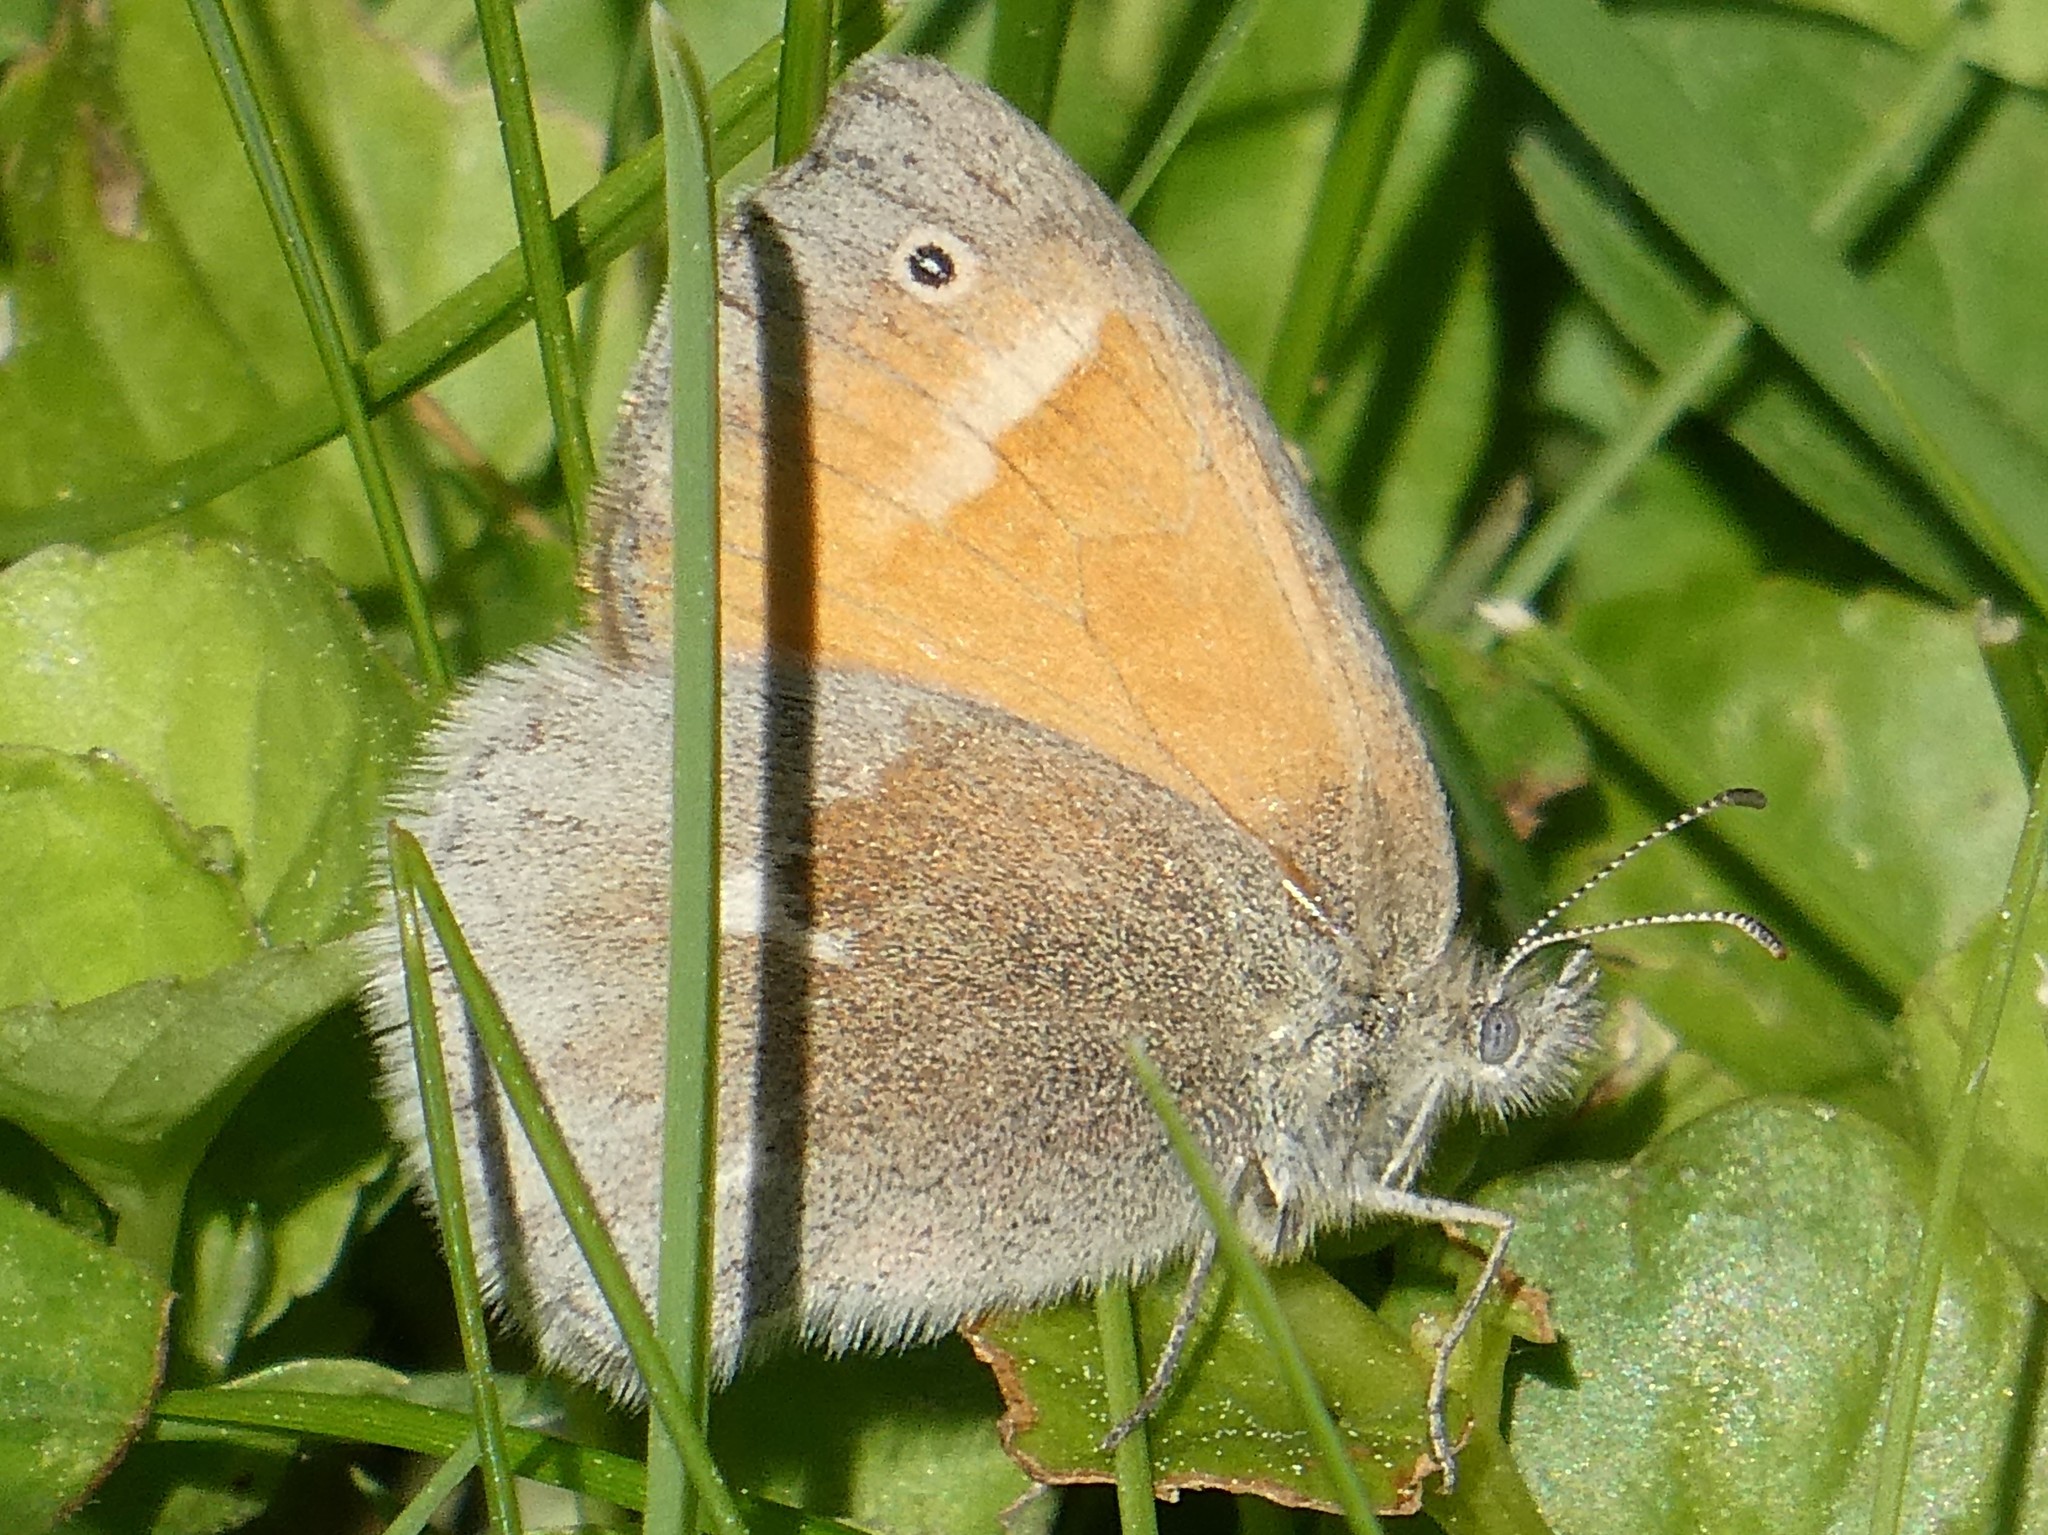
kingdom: Animalia
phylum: Arthropoda
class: Insecta
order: Lepidoptera
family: Nymphalidae
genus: Coenonympha
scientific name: Coenonympha california
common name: Common ringlet
